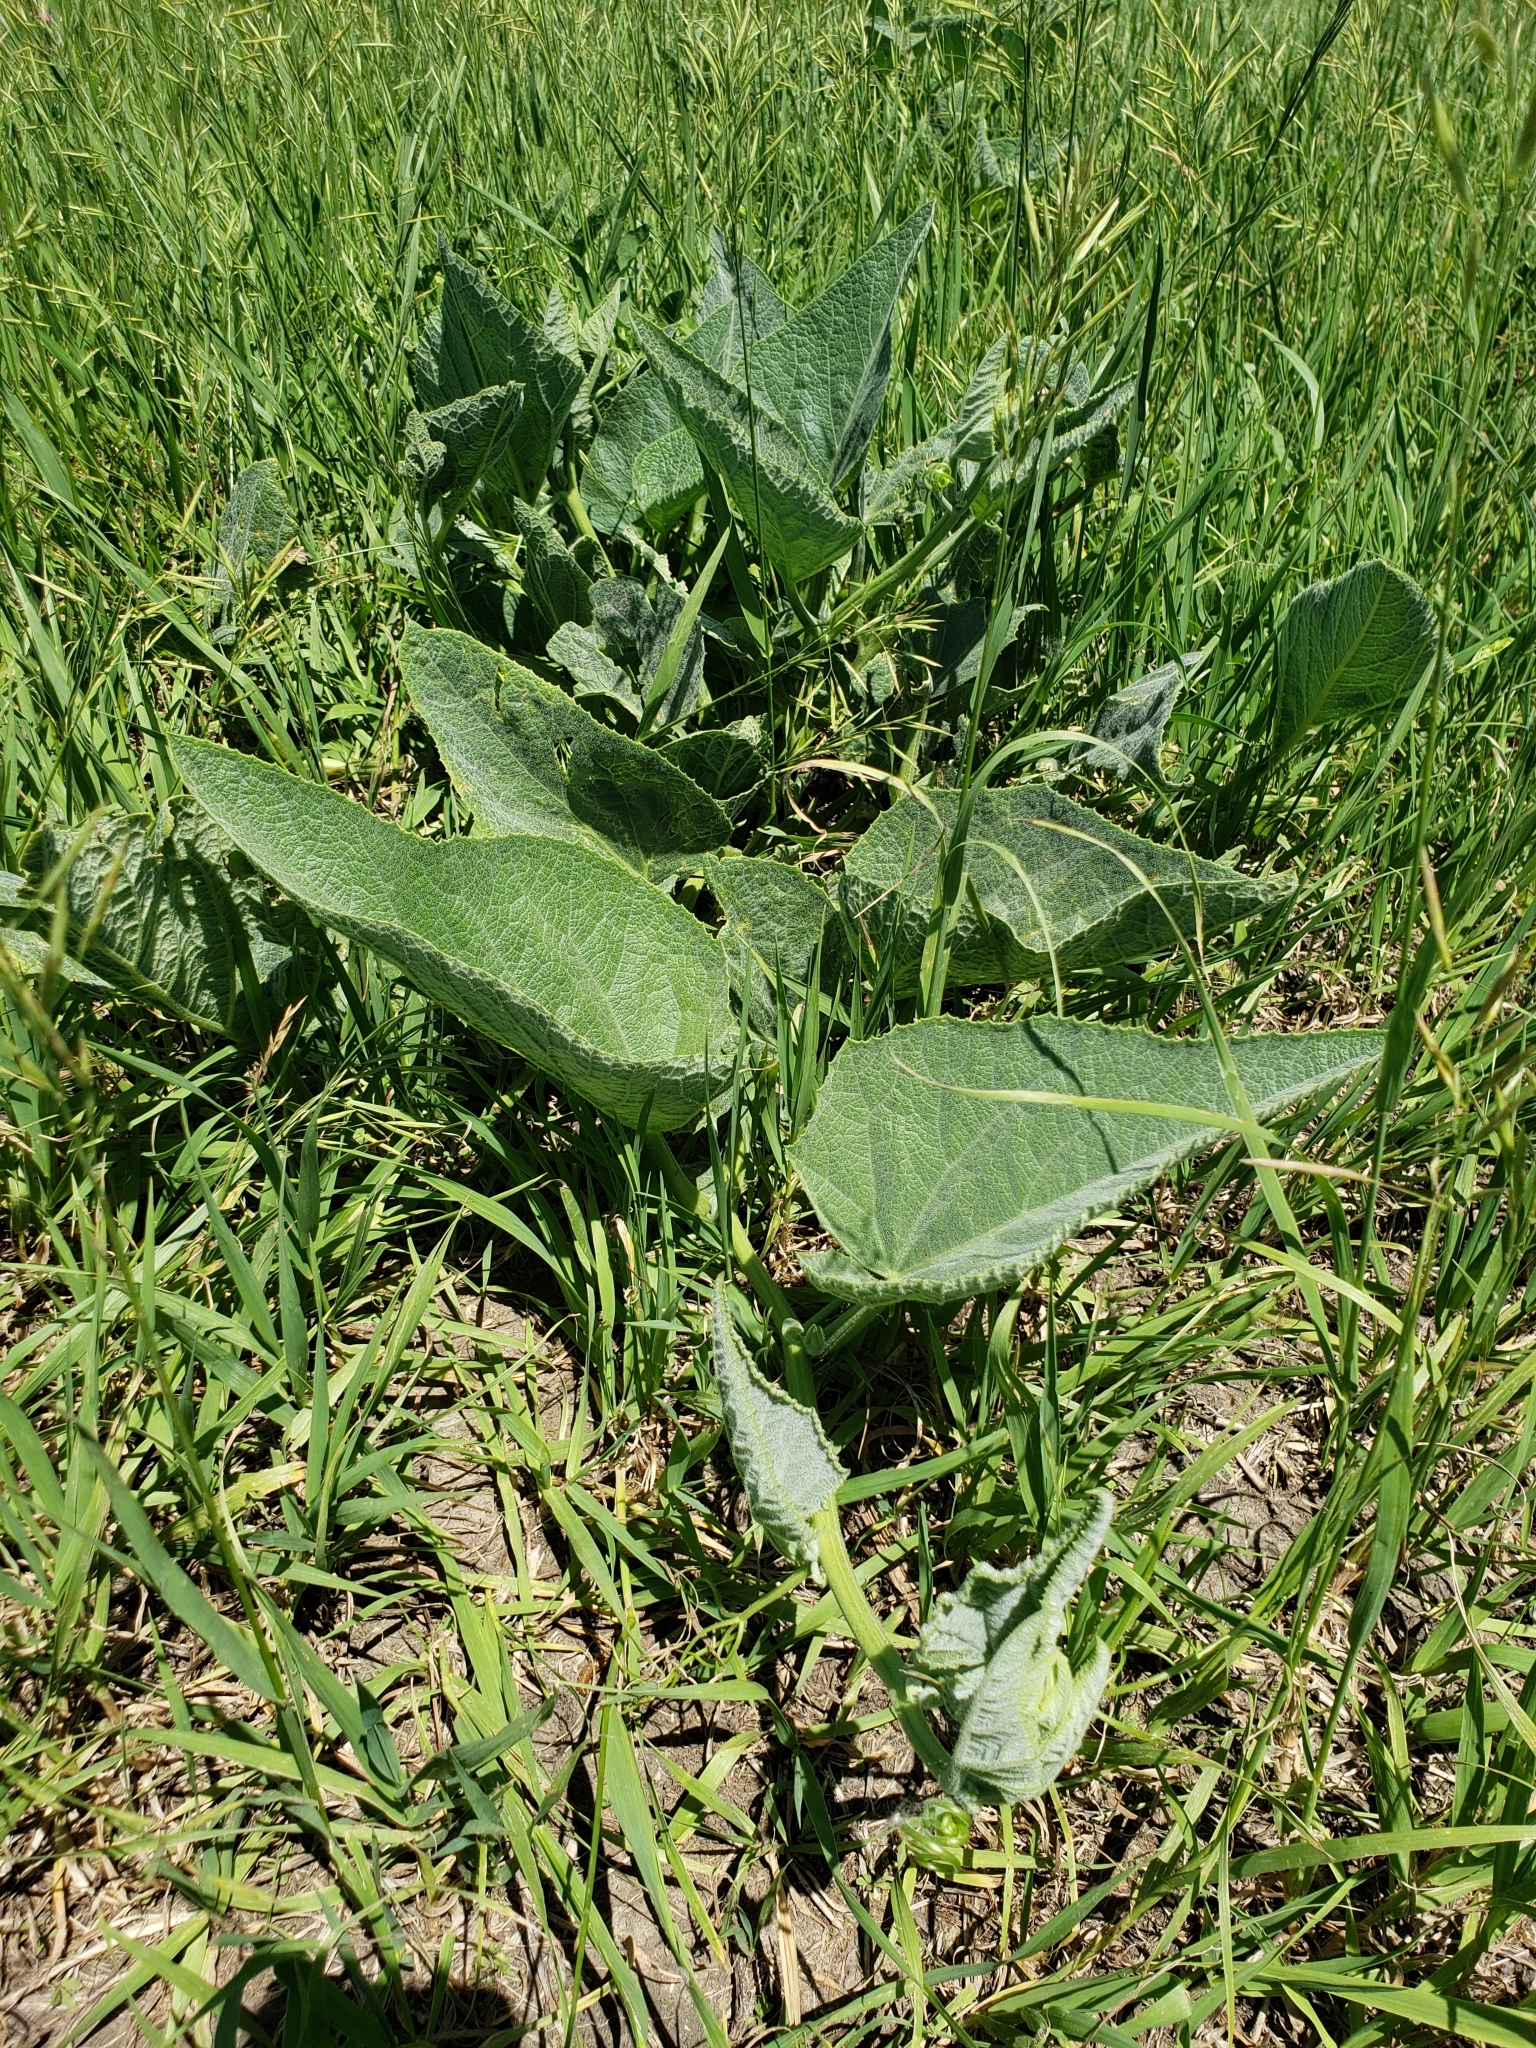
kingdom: Plantae
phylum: Tracheophyta
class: Magnoliopsida
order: Cucurbitales
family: Cucurbitaceae
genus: Cucurbita
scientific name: Cucurbita foetidissima
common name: Buffalo gourd
